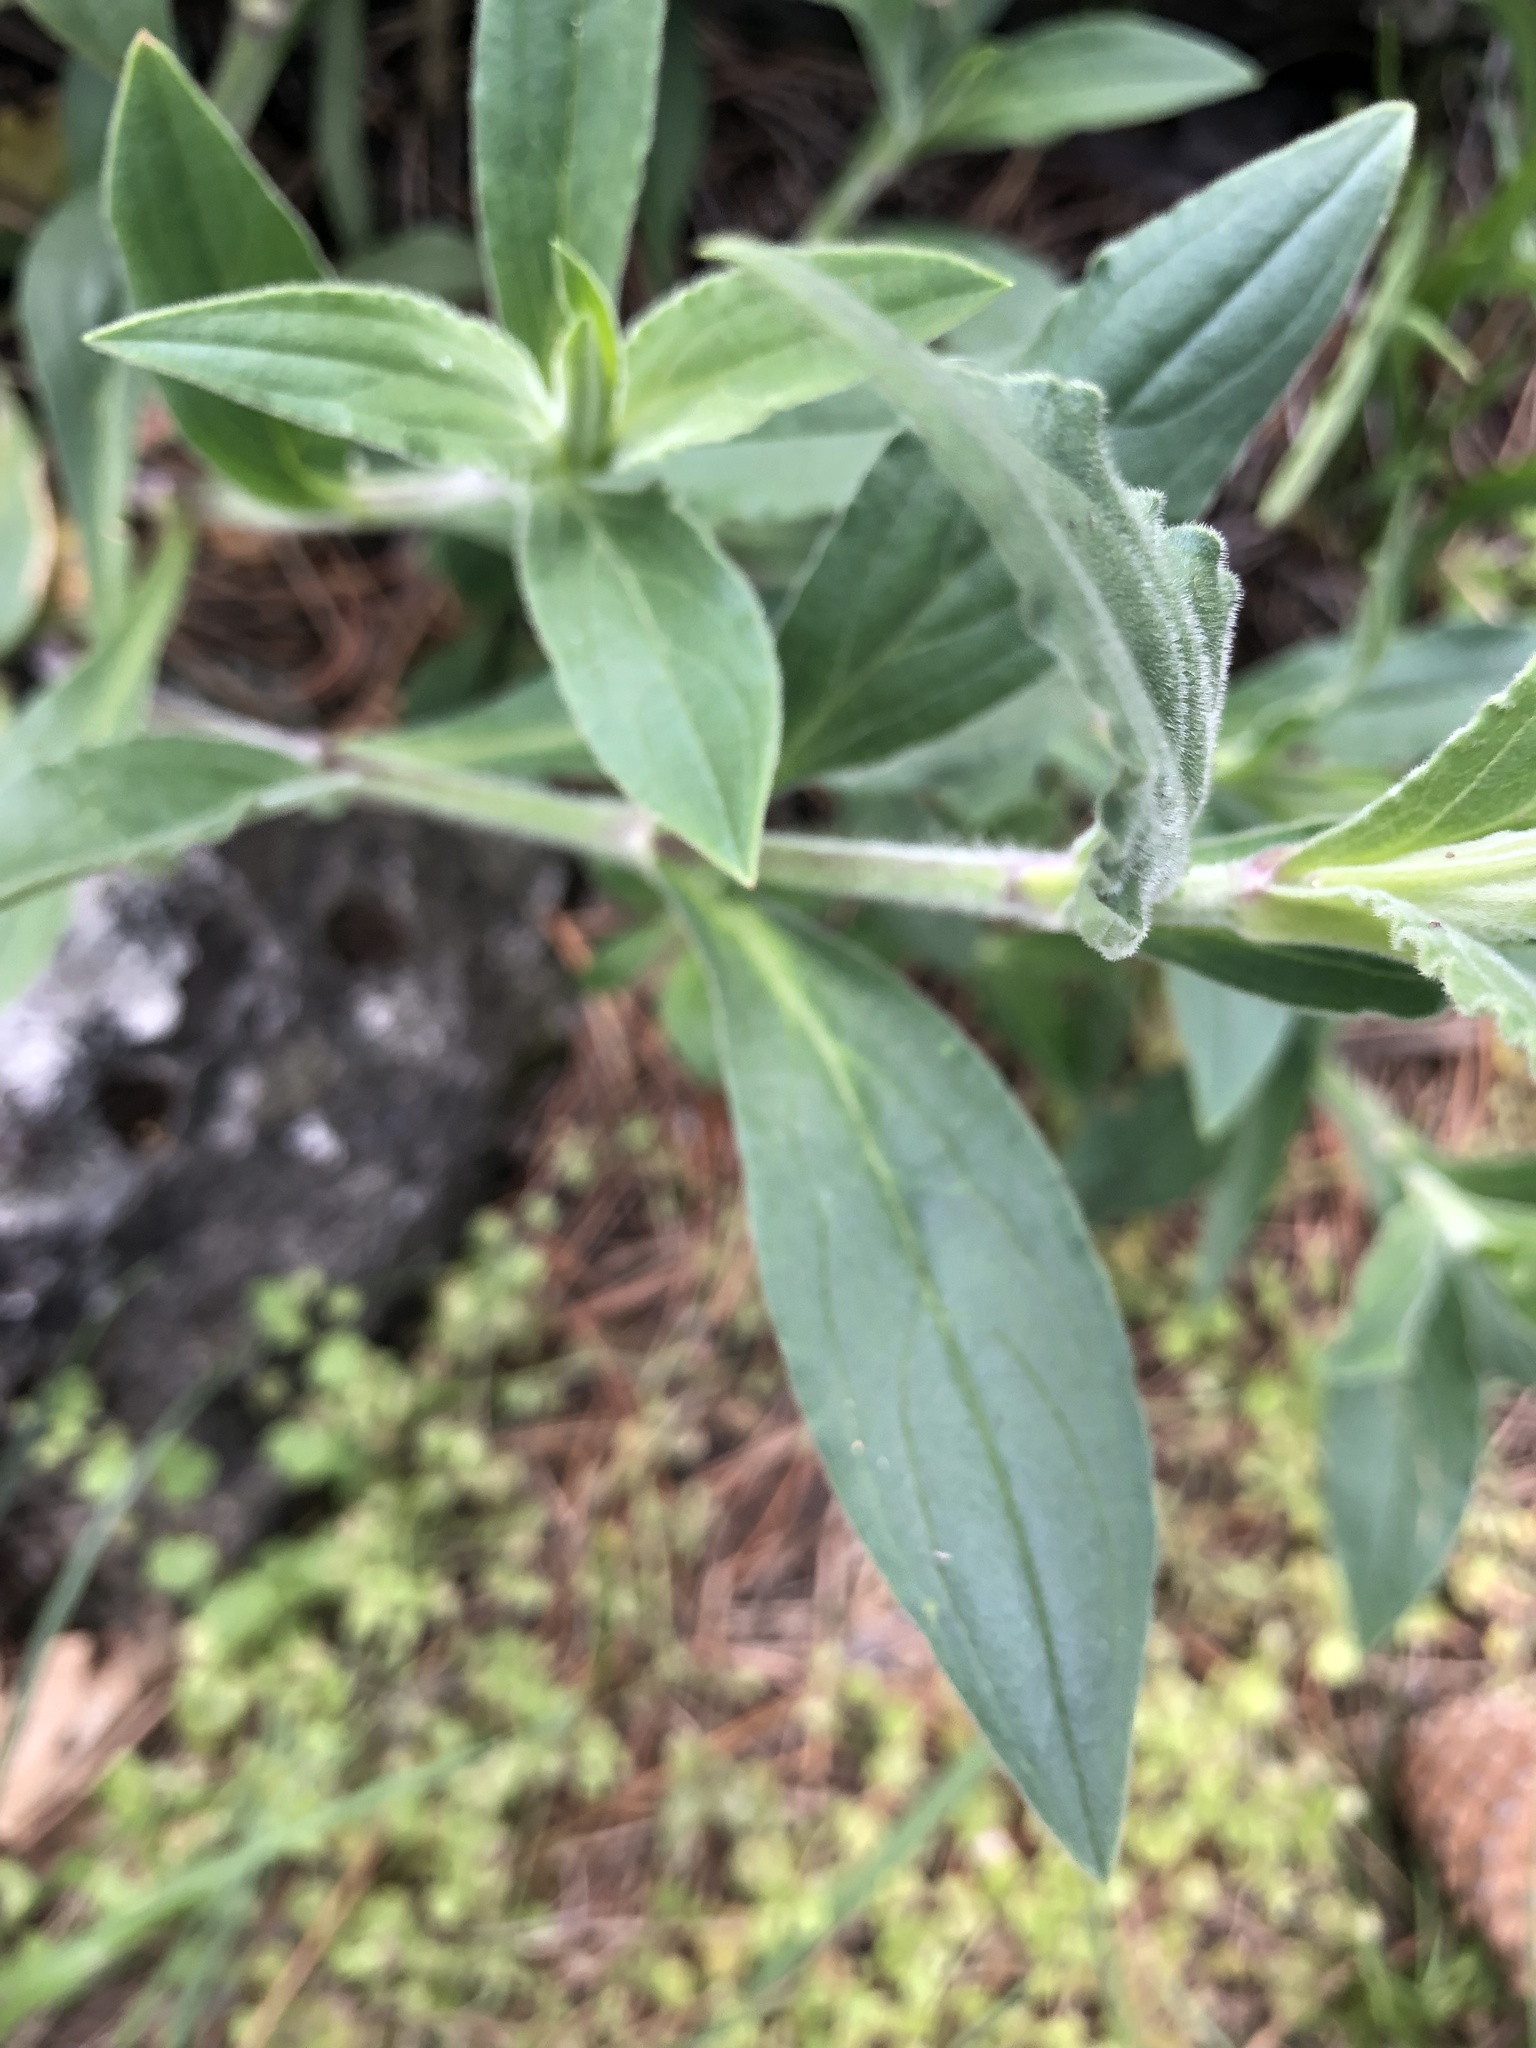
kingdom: Plantae
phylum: Tracheophyta
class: Magnoliopsida
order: Caryophyllales
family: Caryophyllaceae
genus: Silene
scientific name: Silene latifolia
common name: White campion
